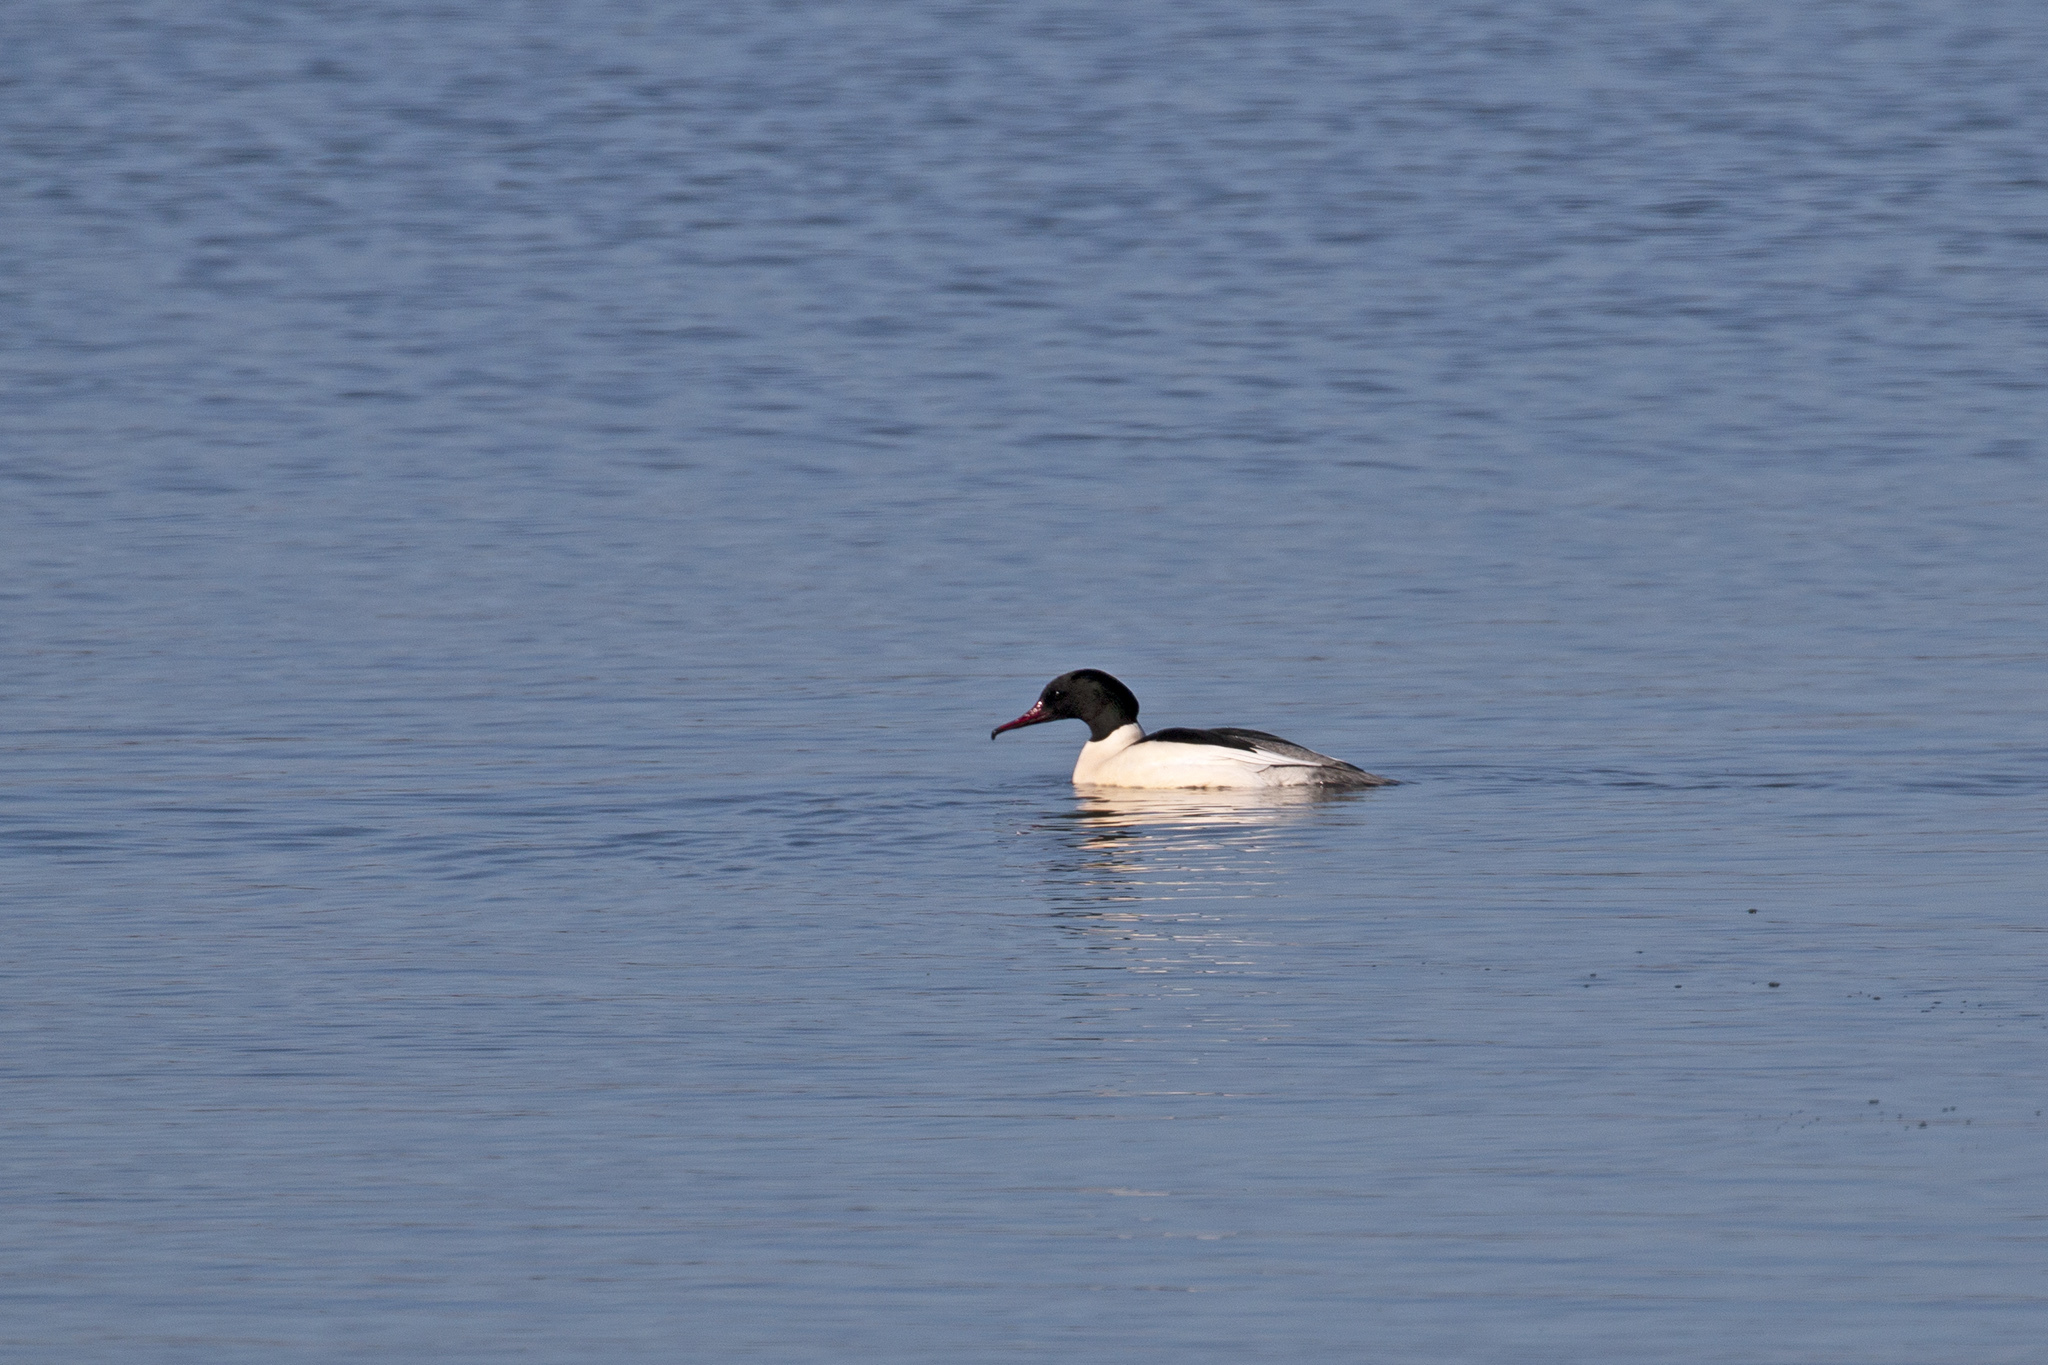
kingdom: Animalia
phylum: Chordata
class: Aves
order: Anseriformes
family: Anatidae
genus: Mergus
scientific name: Mergus merganser
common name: Common merganser
